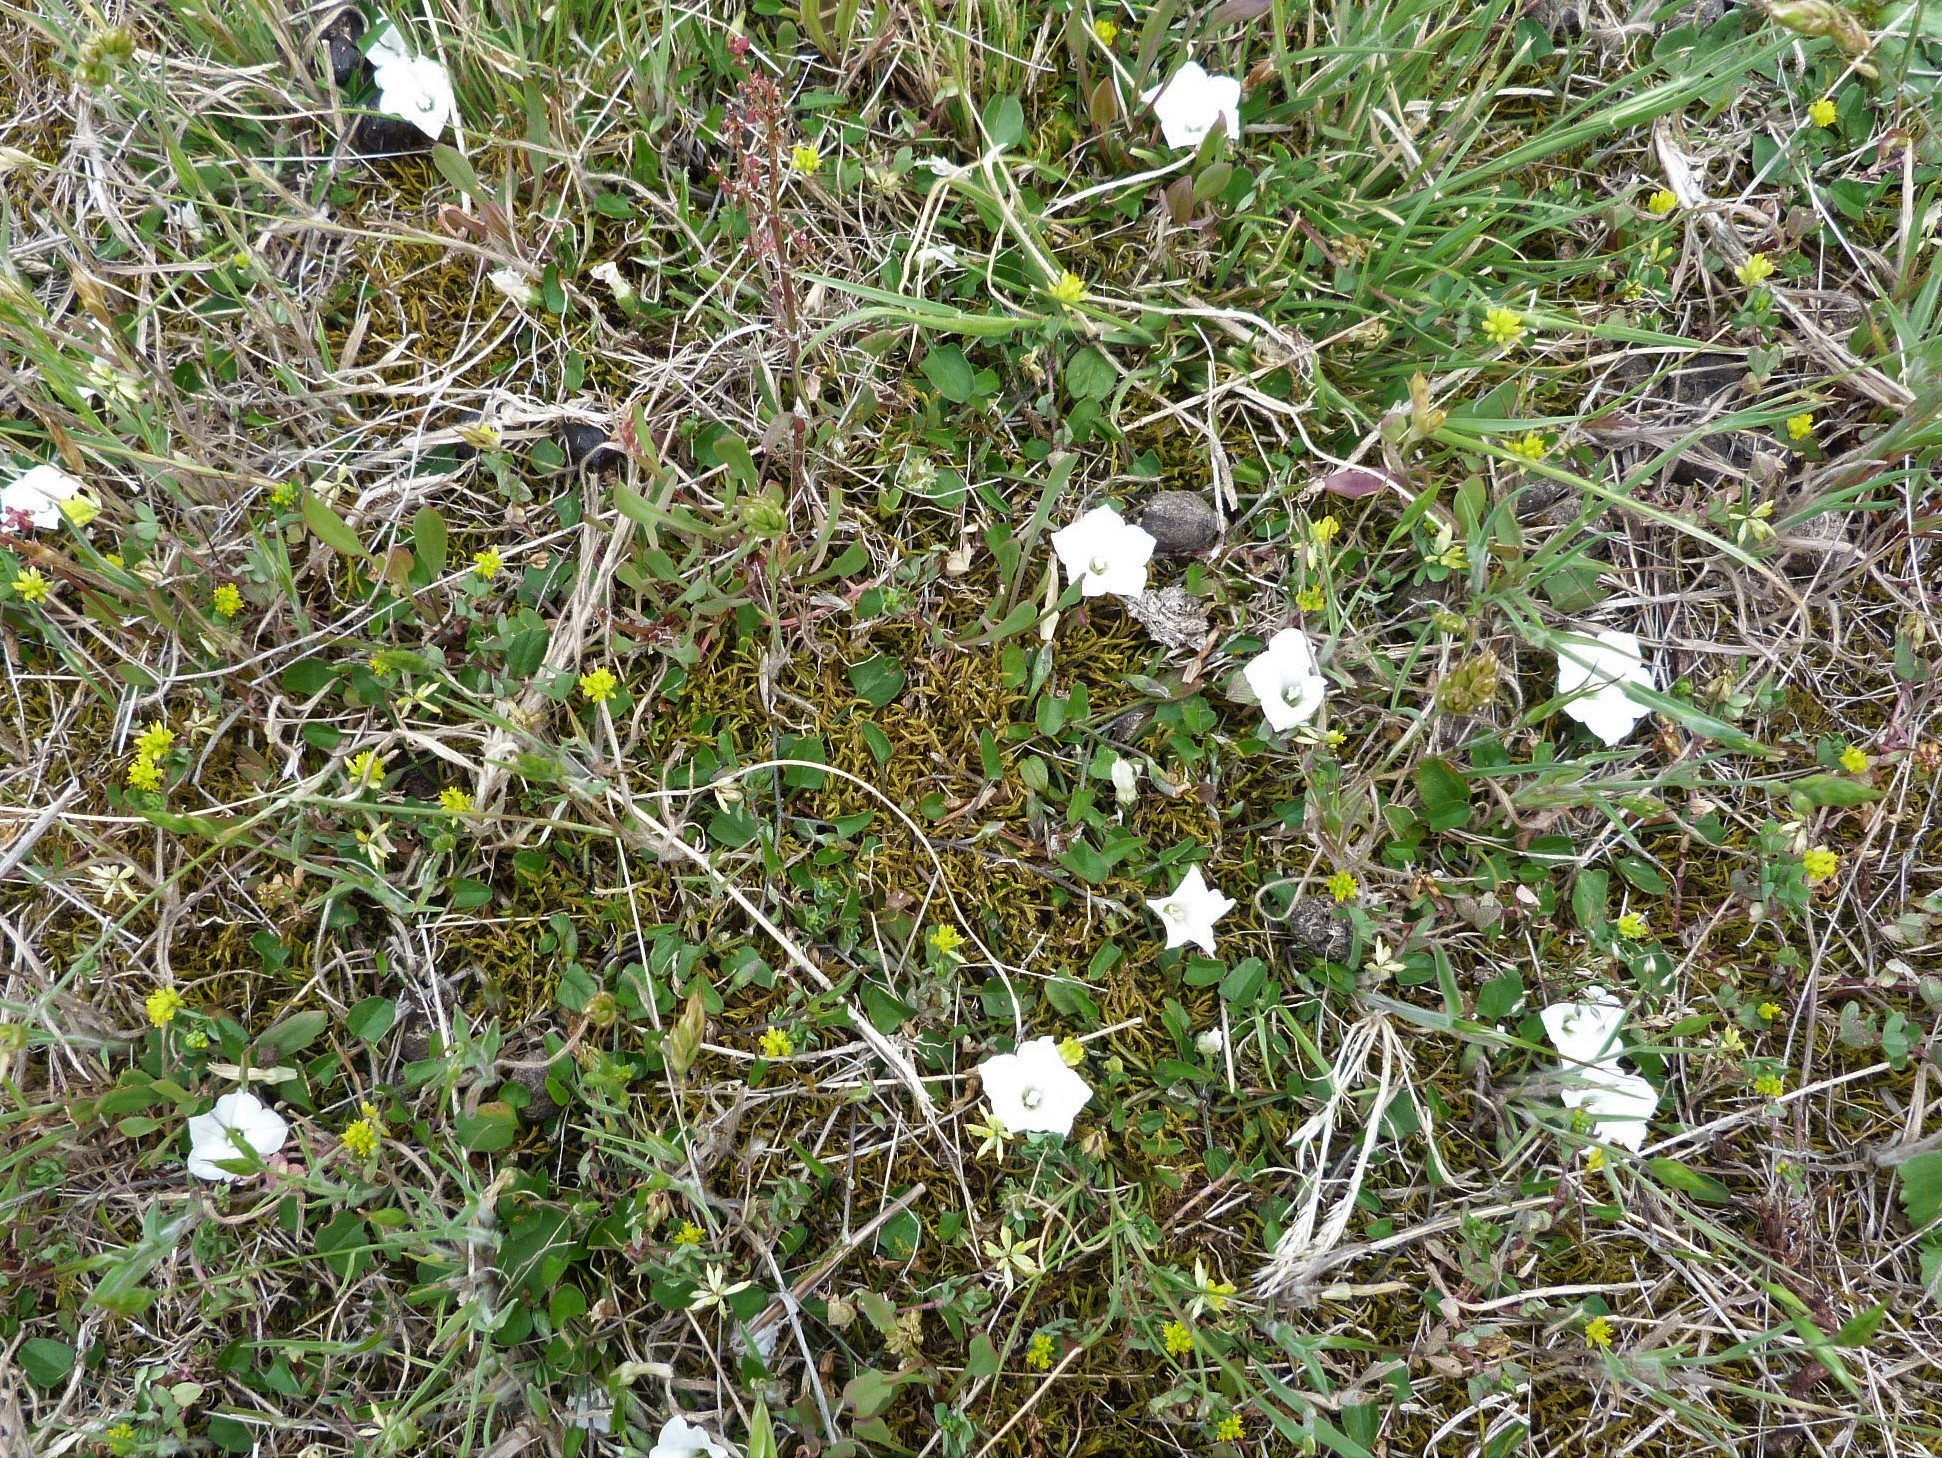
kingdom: Plantae
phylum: Tracheophyta
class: Magnoliopsida
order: Solanales
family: Convolvulaceae
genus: Convolvulus
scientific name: Convolvulus waitaha
